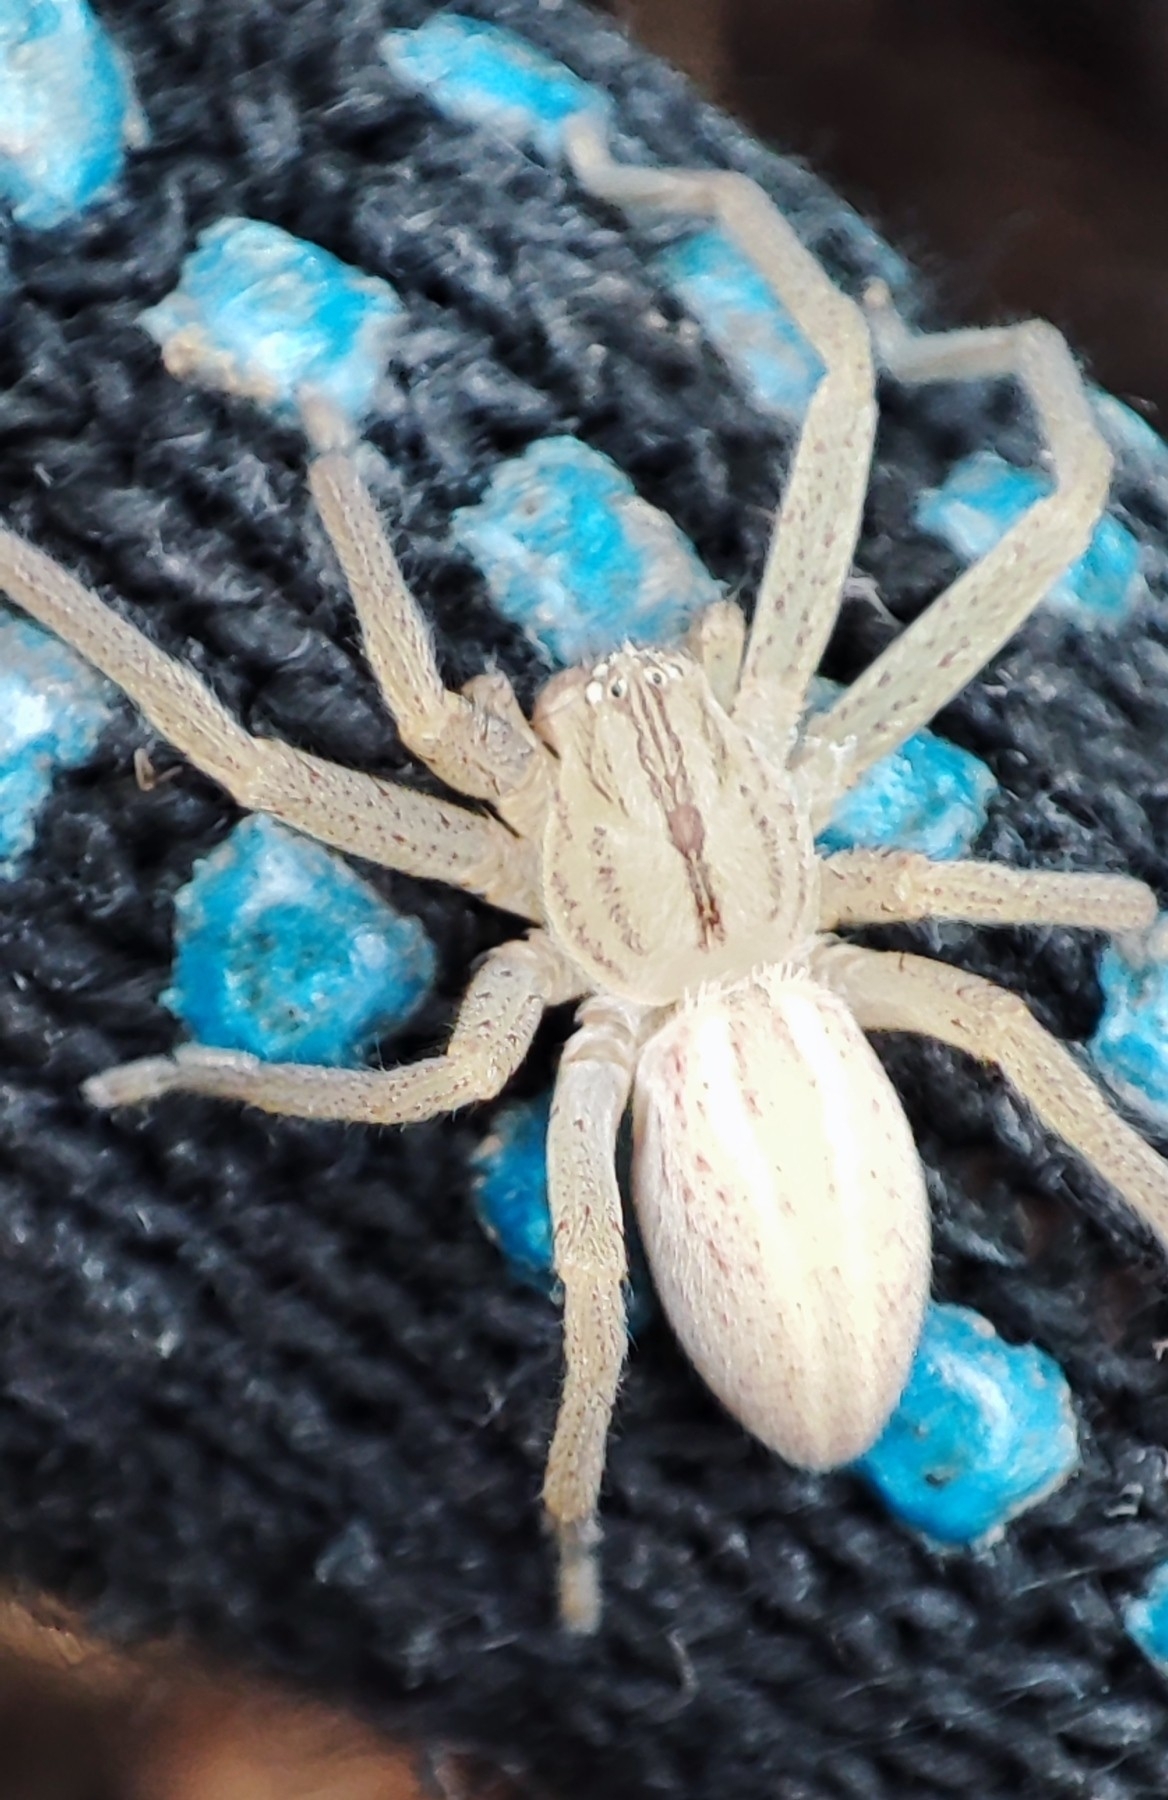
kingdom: Animalia
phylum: Arthropoda
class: Arachnida
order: Araneae
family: Sparassidae
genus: Micrommata
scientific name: Micrommata virescens
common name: Green spider
